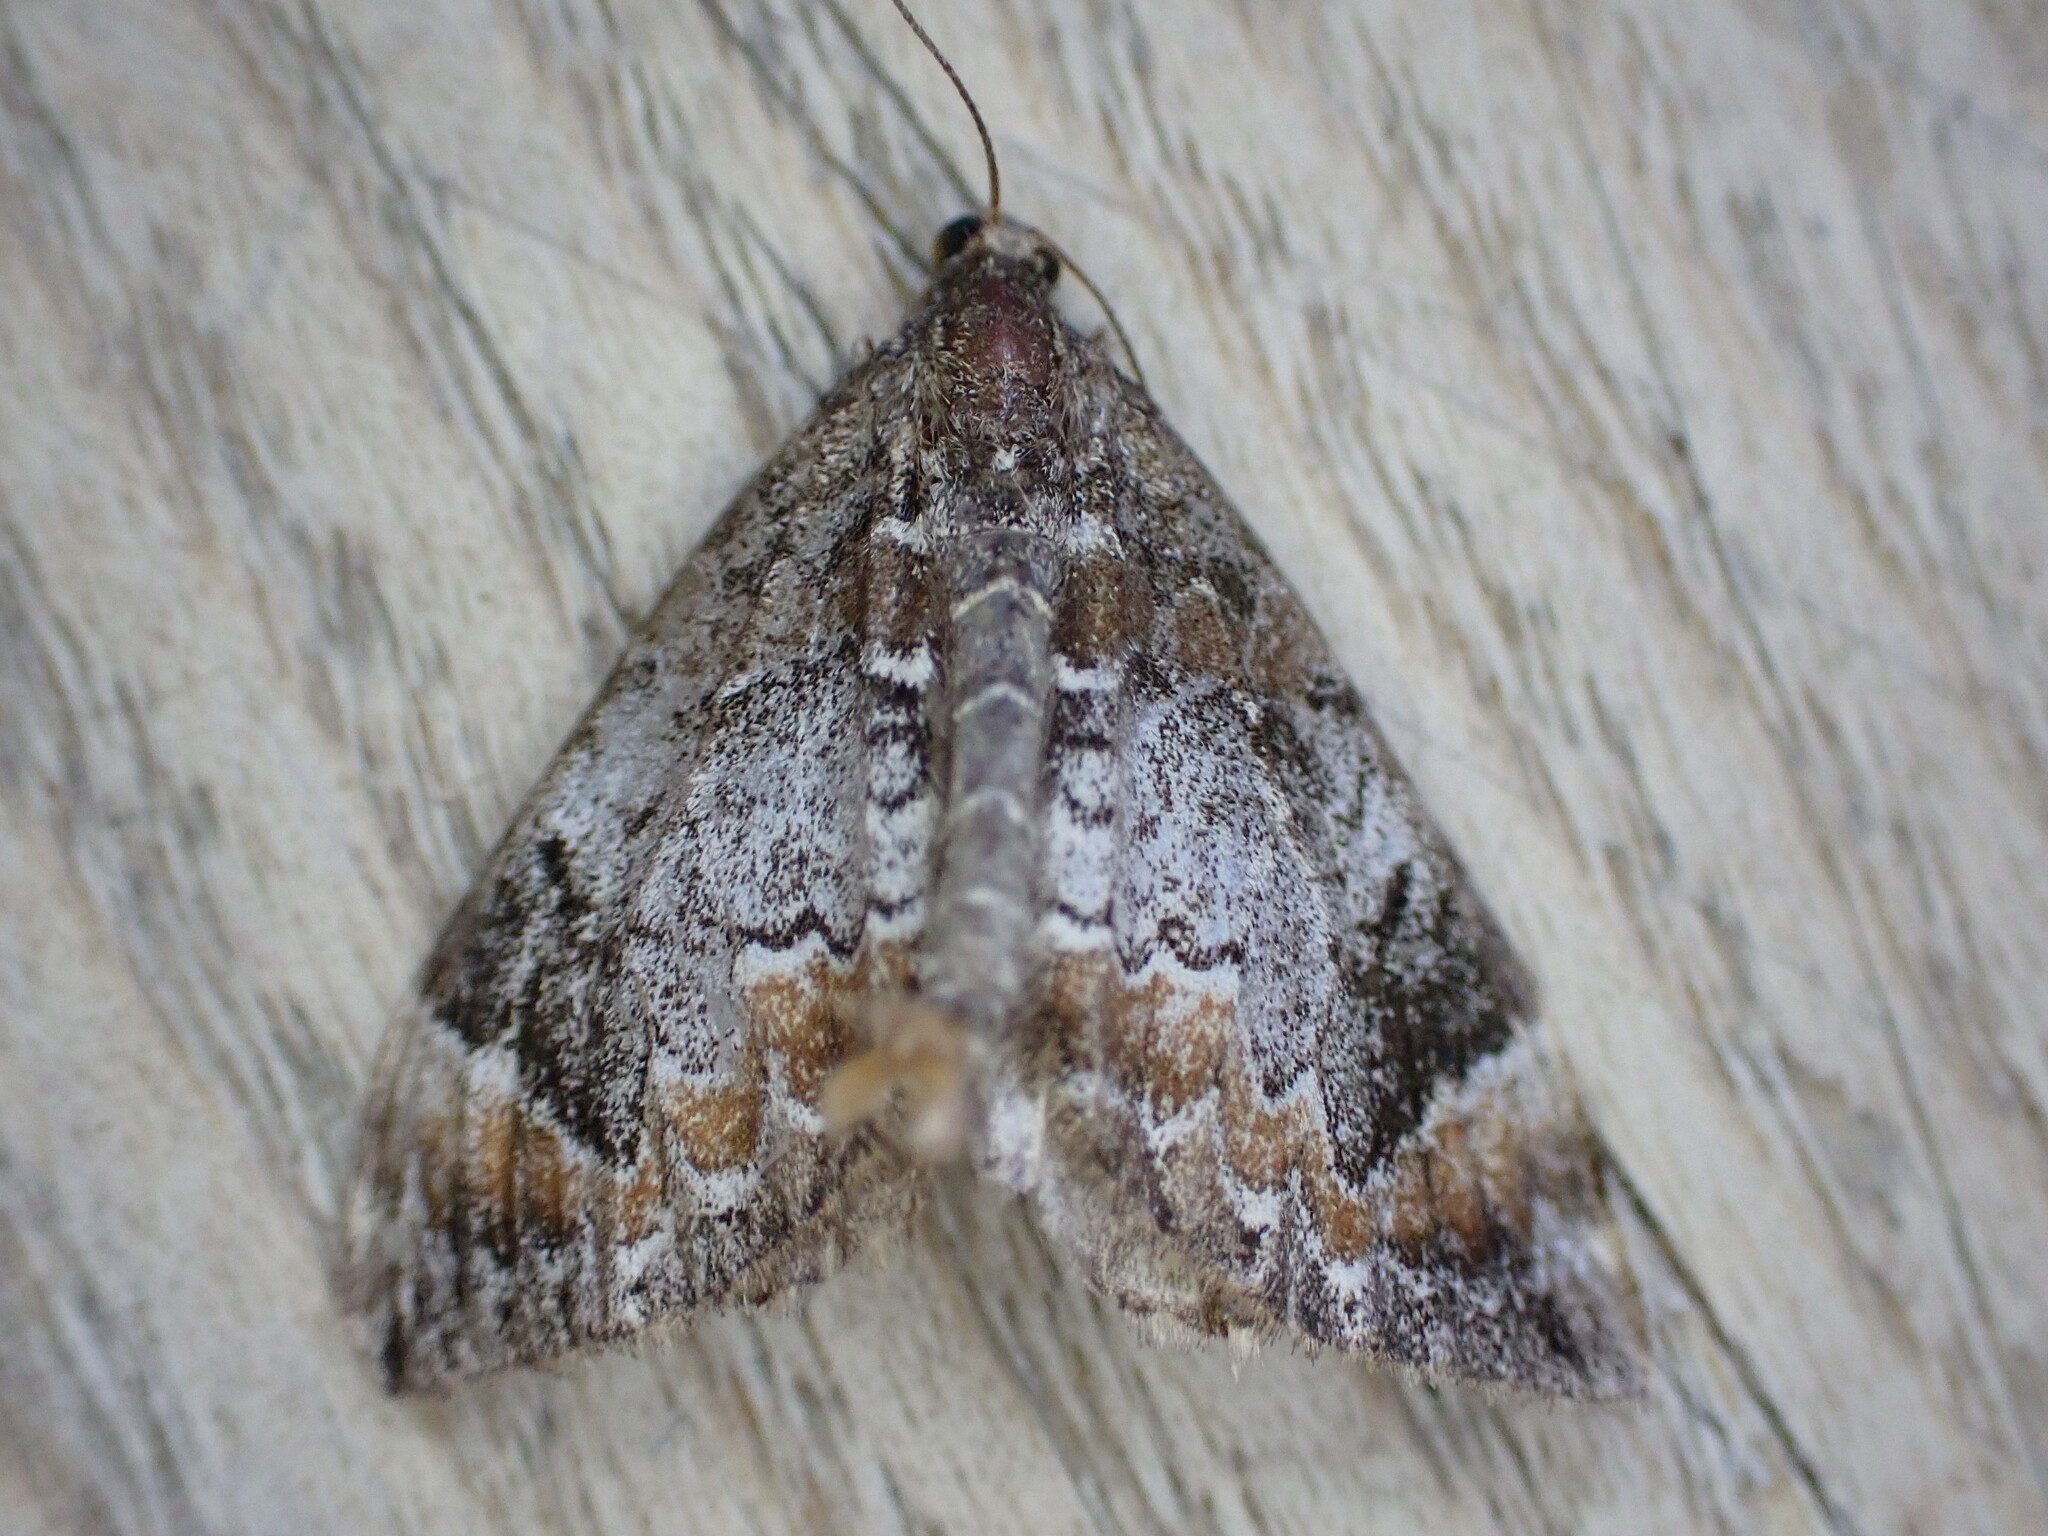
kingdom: Animalia
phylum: Arthropoda
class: Insecta
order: Lepidoptera
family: Geometridae
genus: Dysstroma
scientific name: Dysstroma truncata
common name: Common marbled carpet
